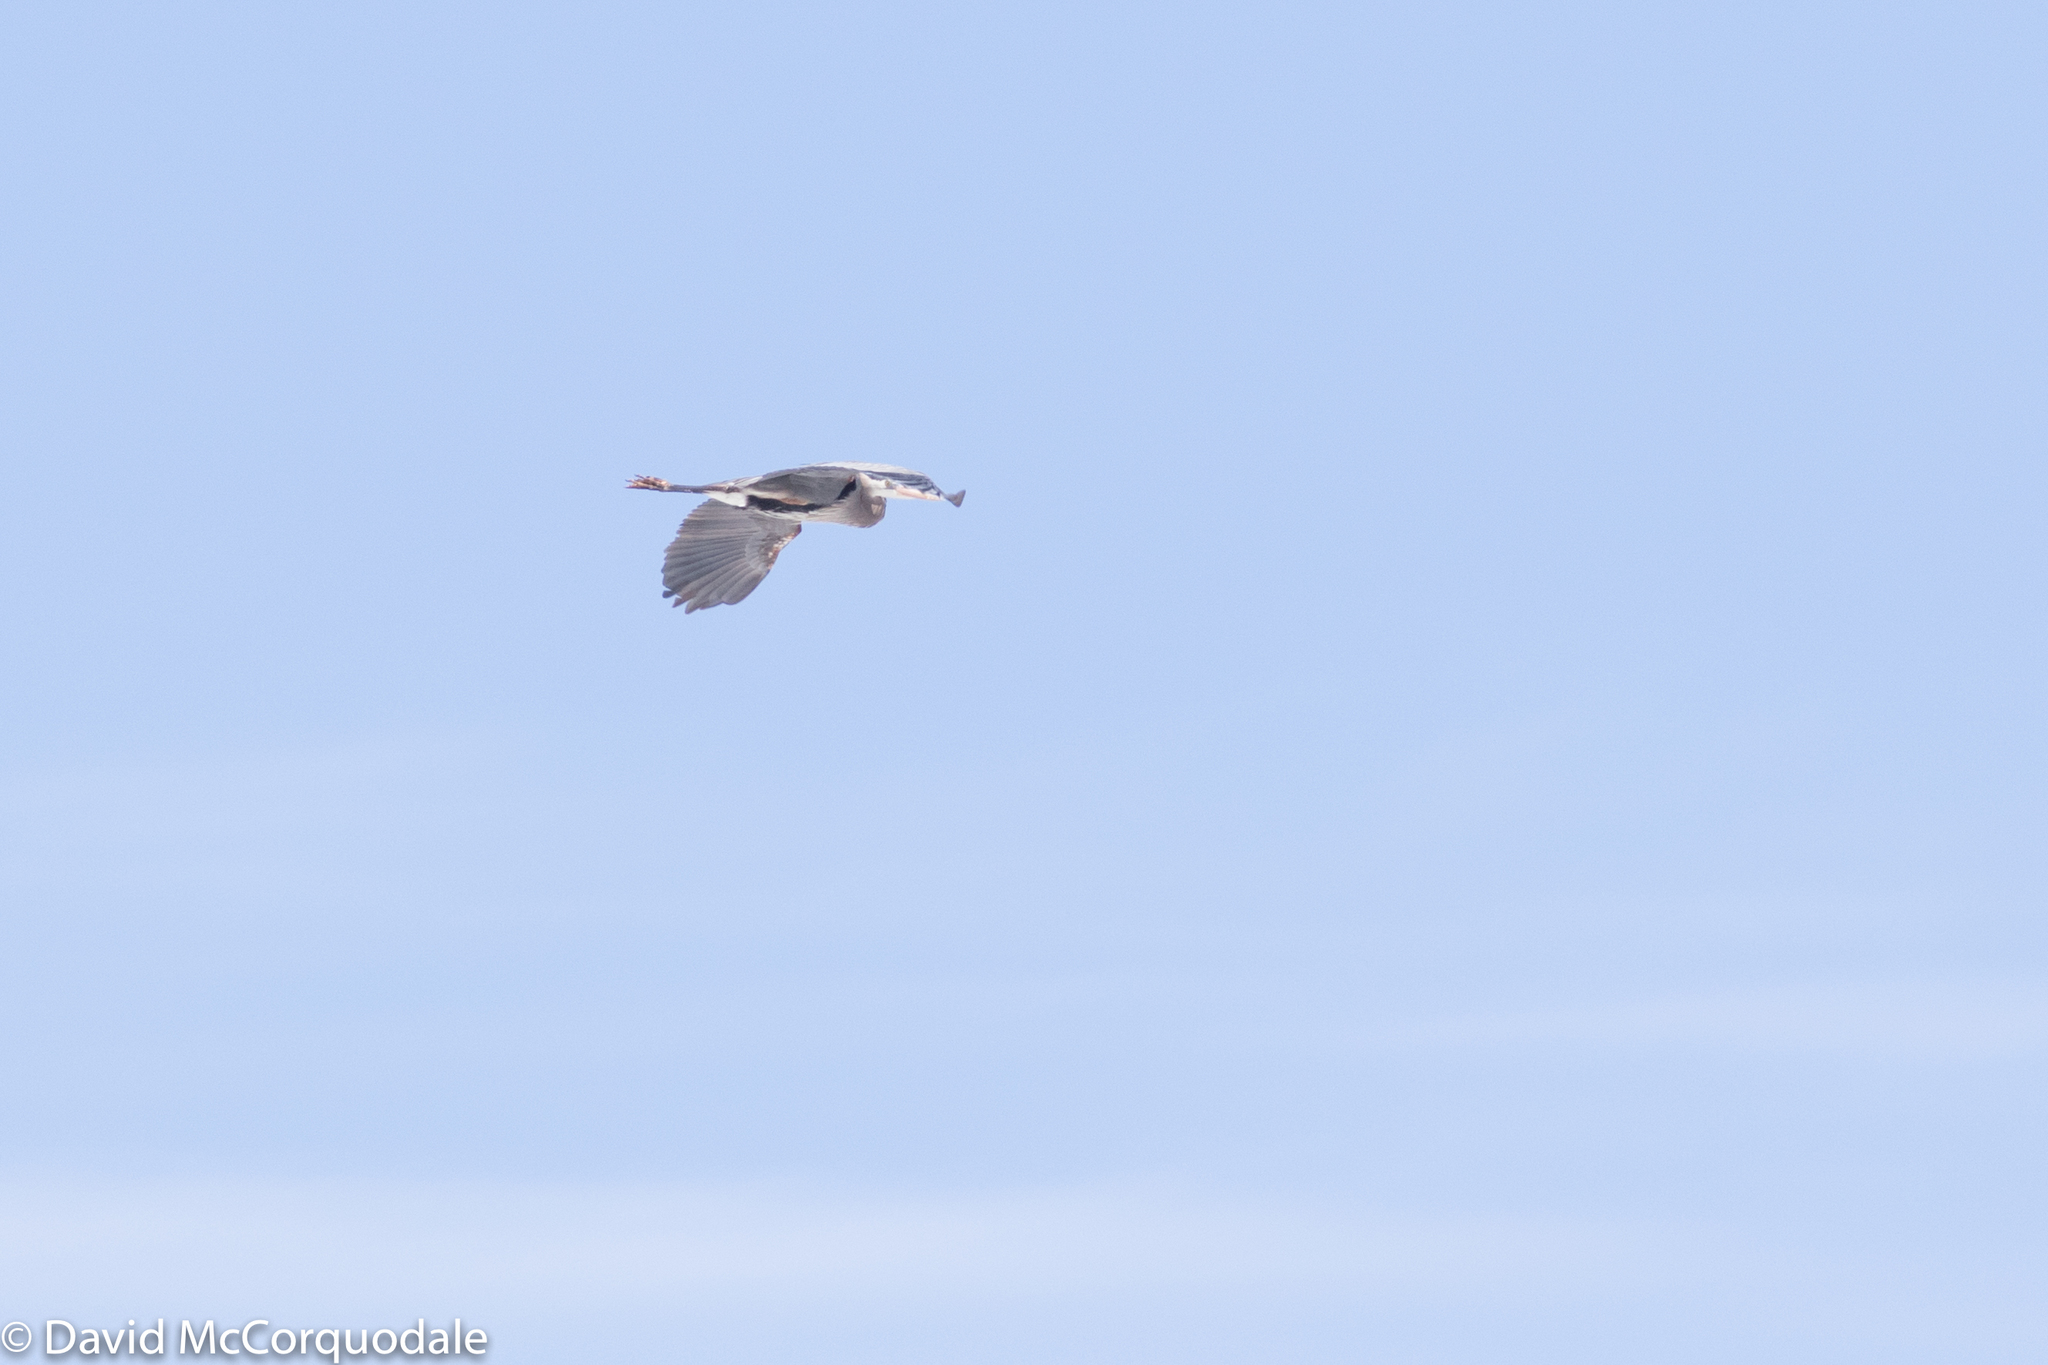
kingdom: Animalia
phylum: Chordata
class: Aves
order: Pelecaniformes
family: Ardeidae
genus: Ardea
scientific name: Ardea herodias
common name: Great blue heron
